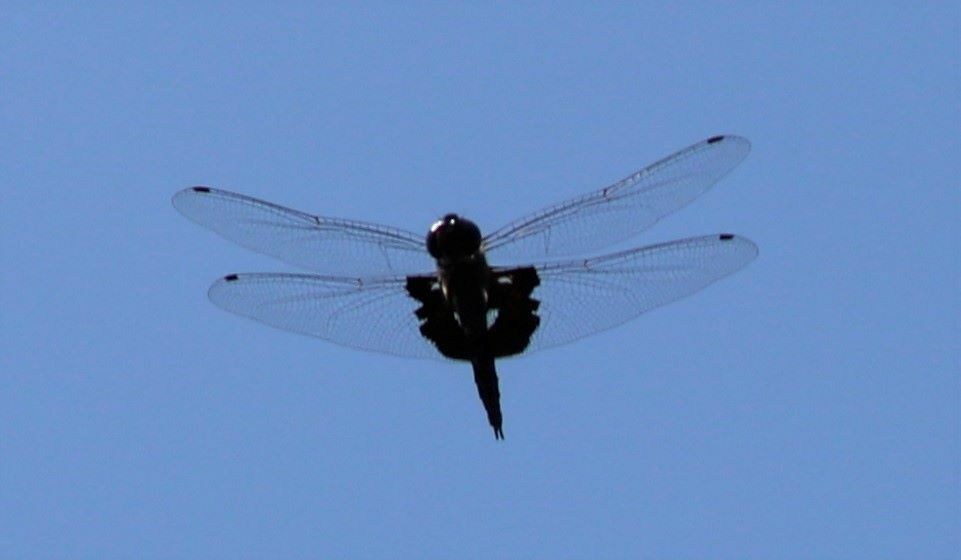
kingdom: Animalia
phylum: Arthropoda
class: Insecta
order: Odonata
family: Libellulidae
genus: Tramea
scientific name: Tramea lacerata
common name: Black saddlebags
